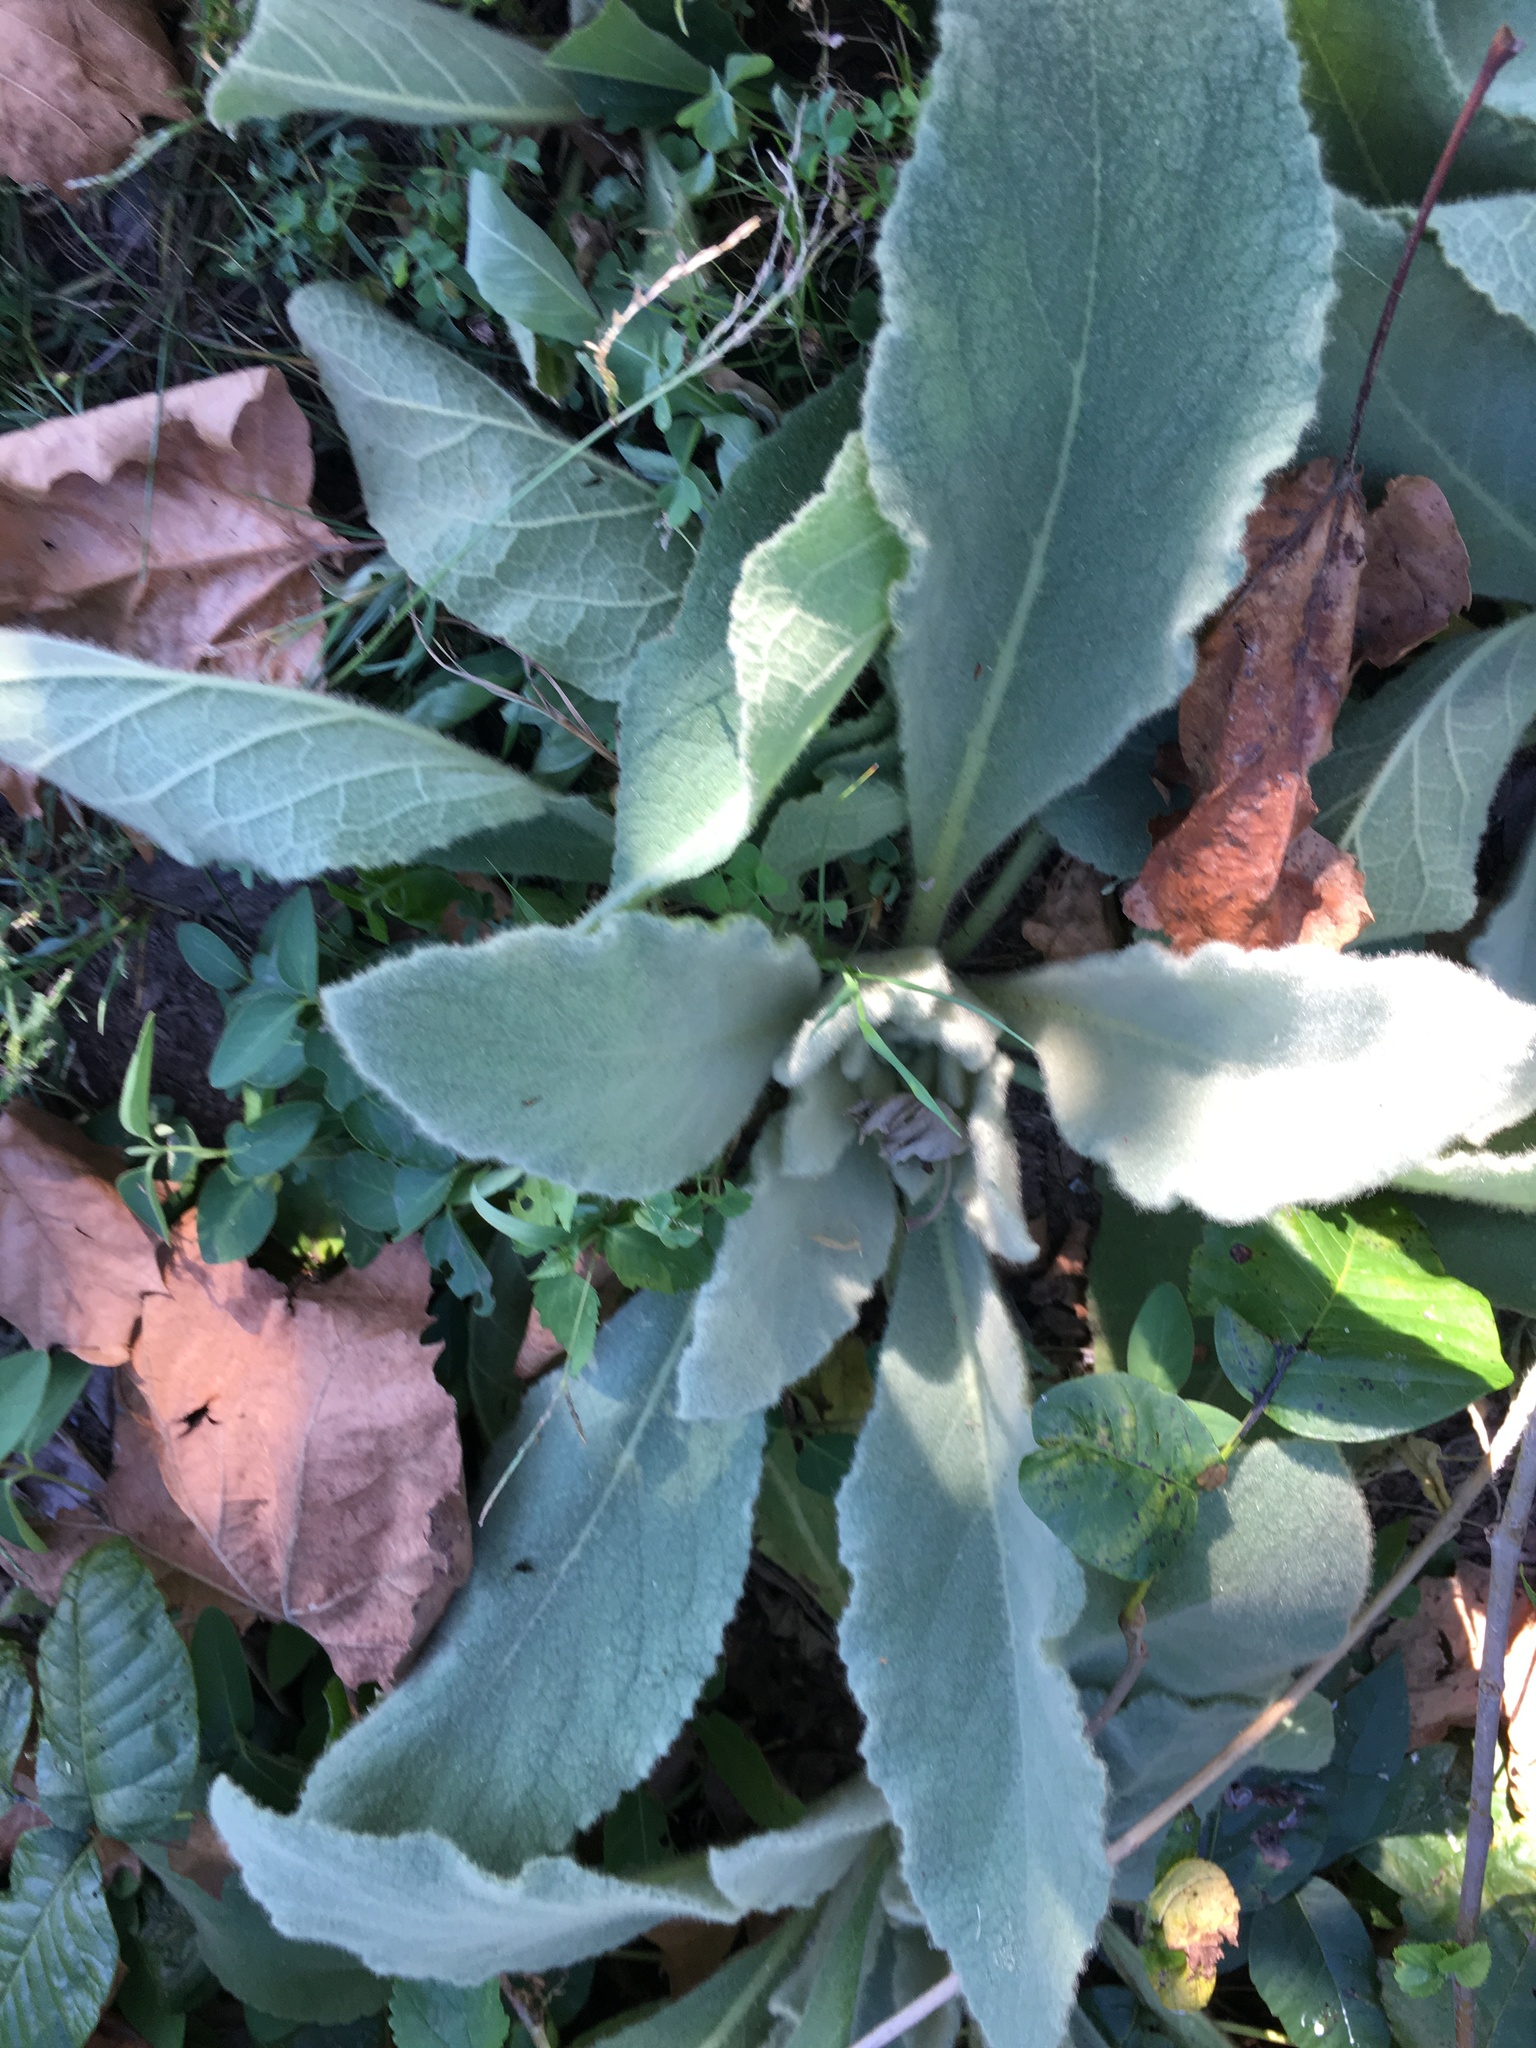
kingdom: Plantae
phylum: Tracheophyta
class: Magnoliopsida
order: Lamiales
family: Scrophulariaceae
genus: Verbascum
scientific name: Verbascum thapsus
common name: Common mullein
